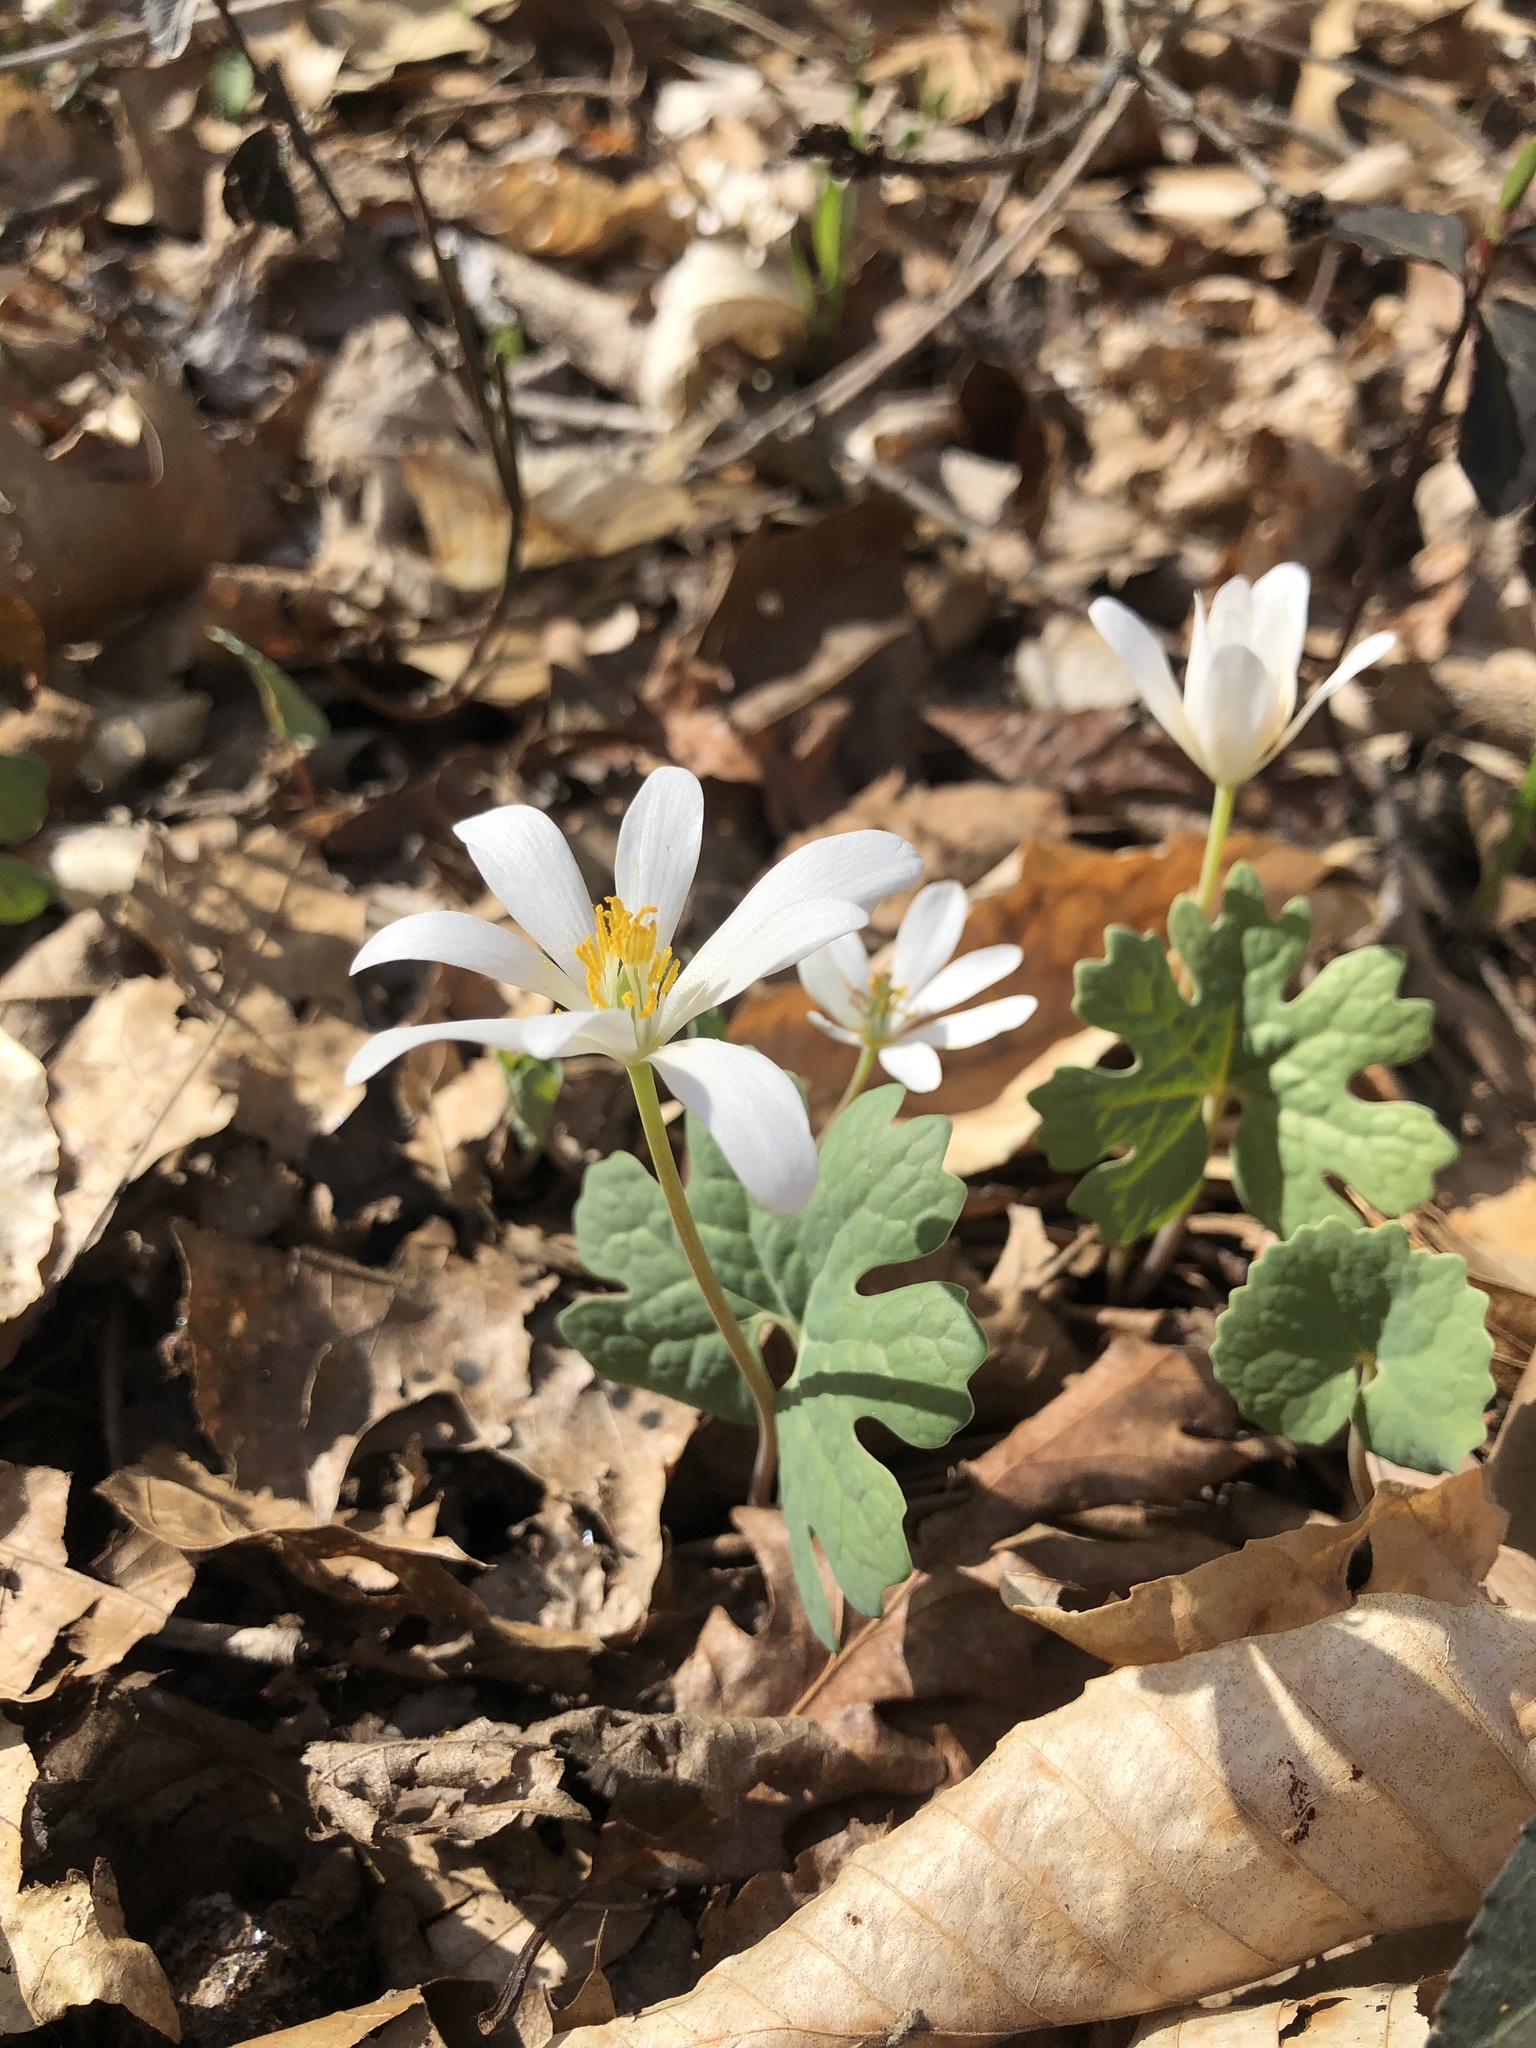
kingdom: Plantae
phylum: Tracheophyta
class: Magnoliopsida
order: Ranunculales
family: Papaveraceae
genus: Sanguinaria
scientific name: Sanguinaria canadensis
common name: Bloodroot
